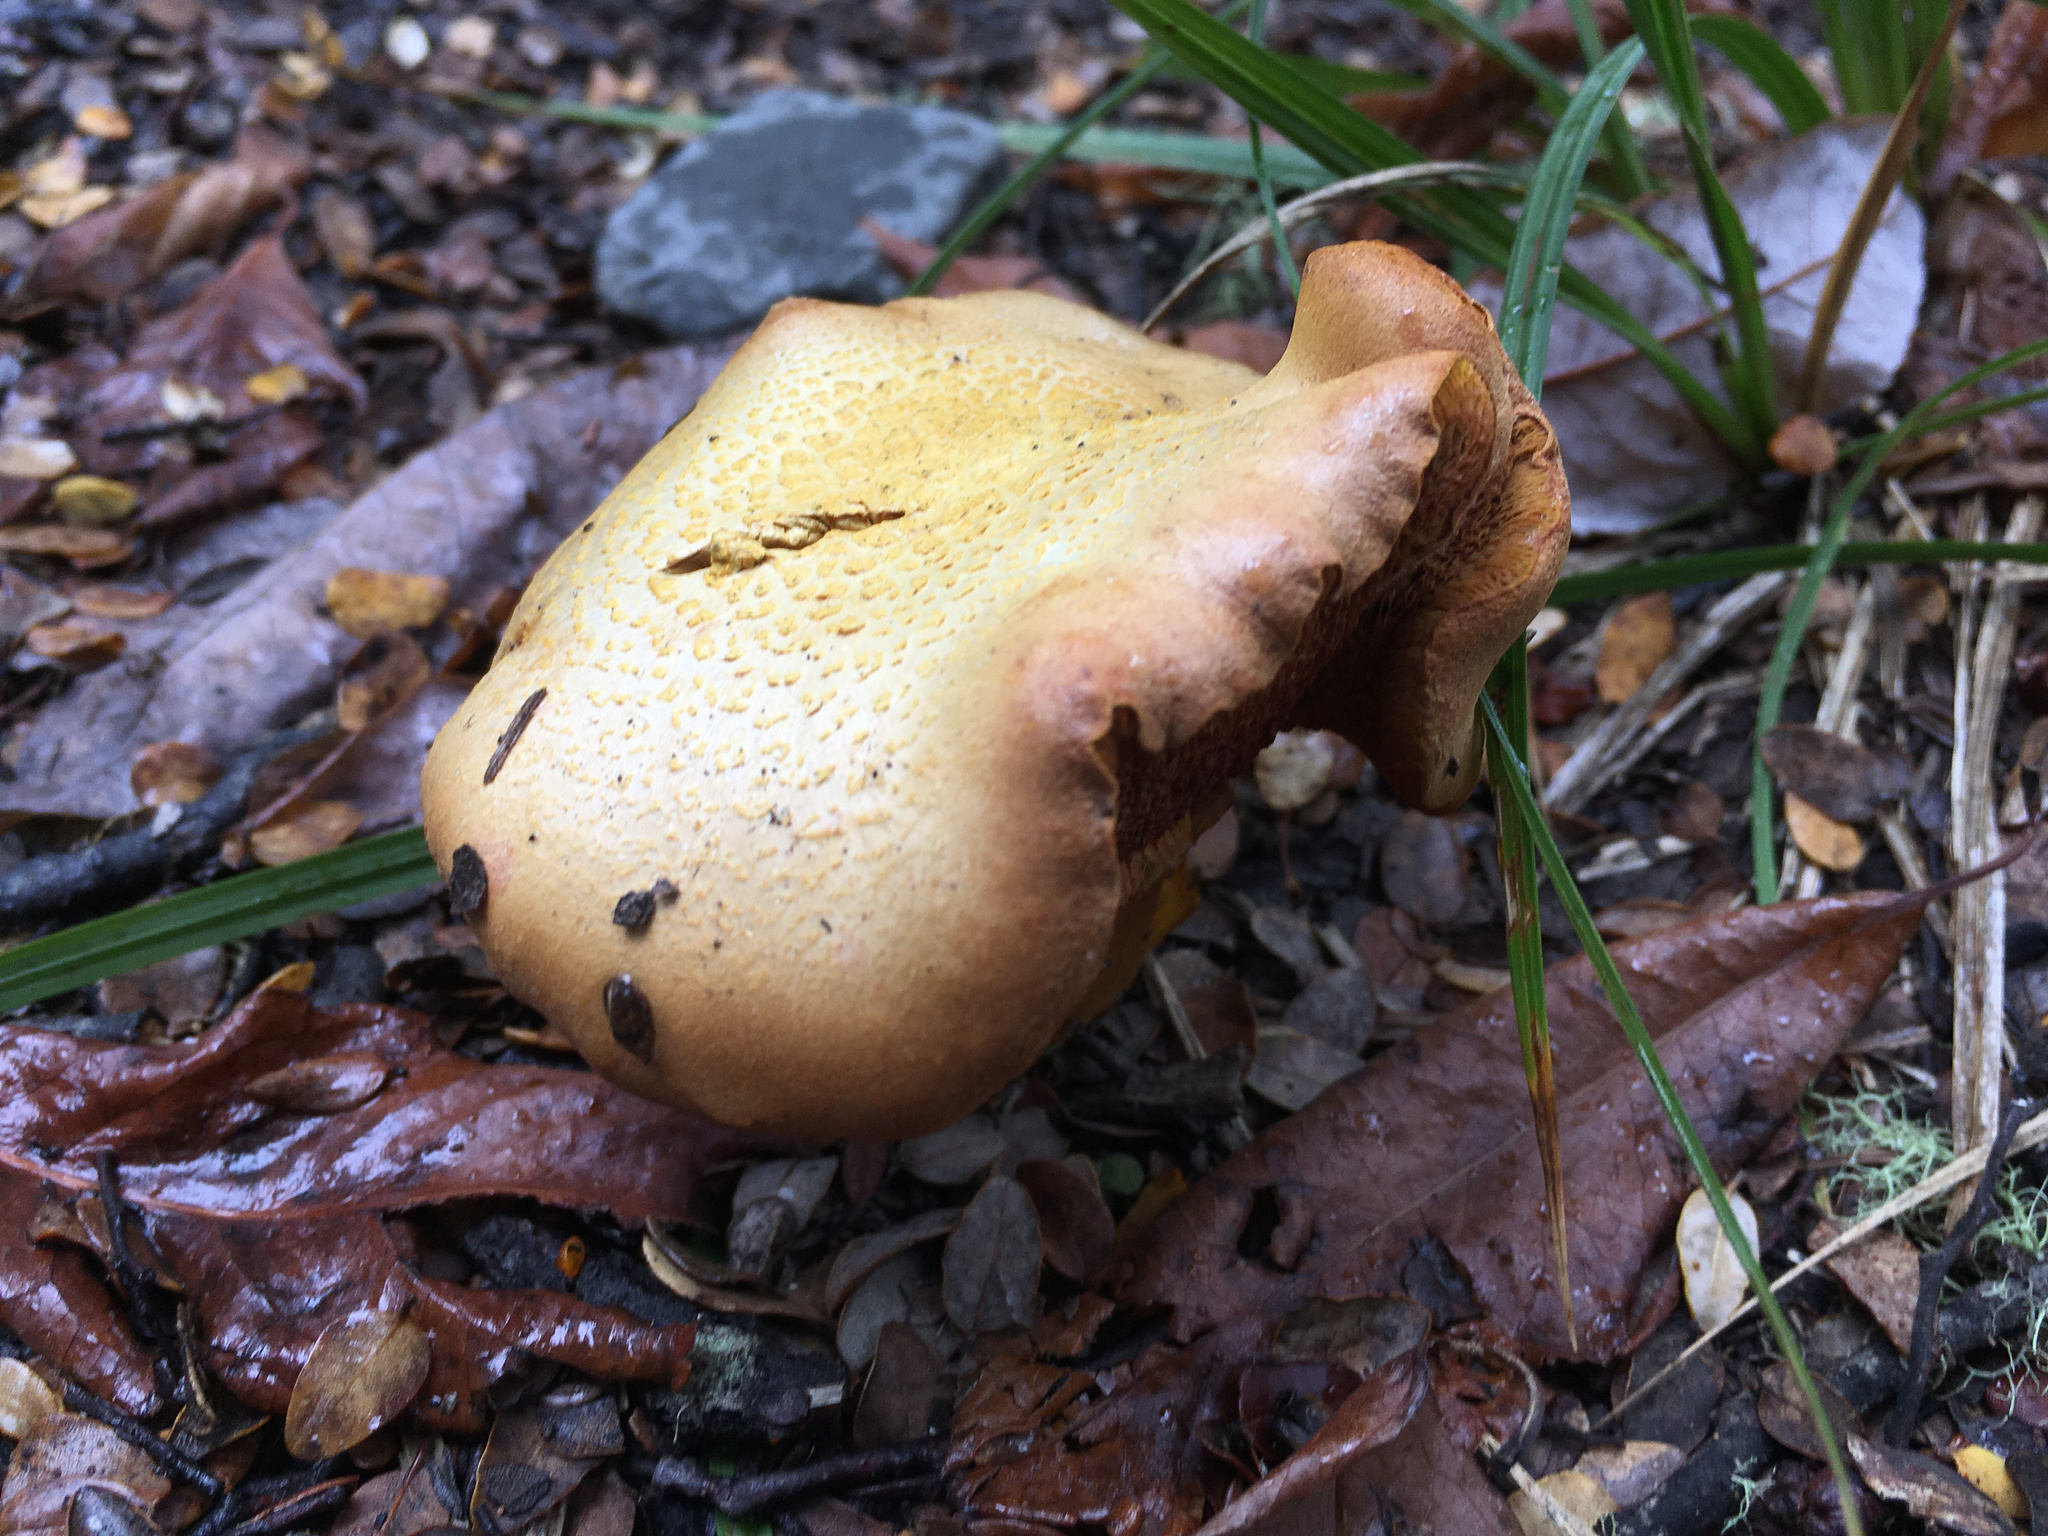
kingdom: Fungi
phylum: Basidiomycota
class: Agaricomycetes
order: Boletales
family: Boletaceae
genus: Chalciporus
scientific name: Chalciporus piperatus
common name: Peppery bolete
